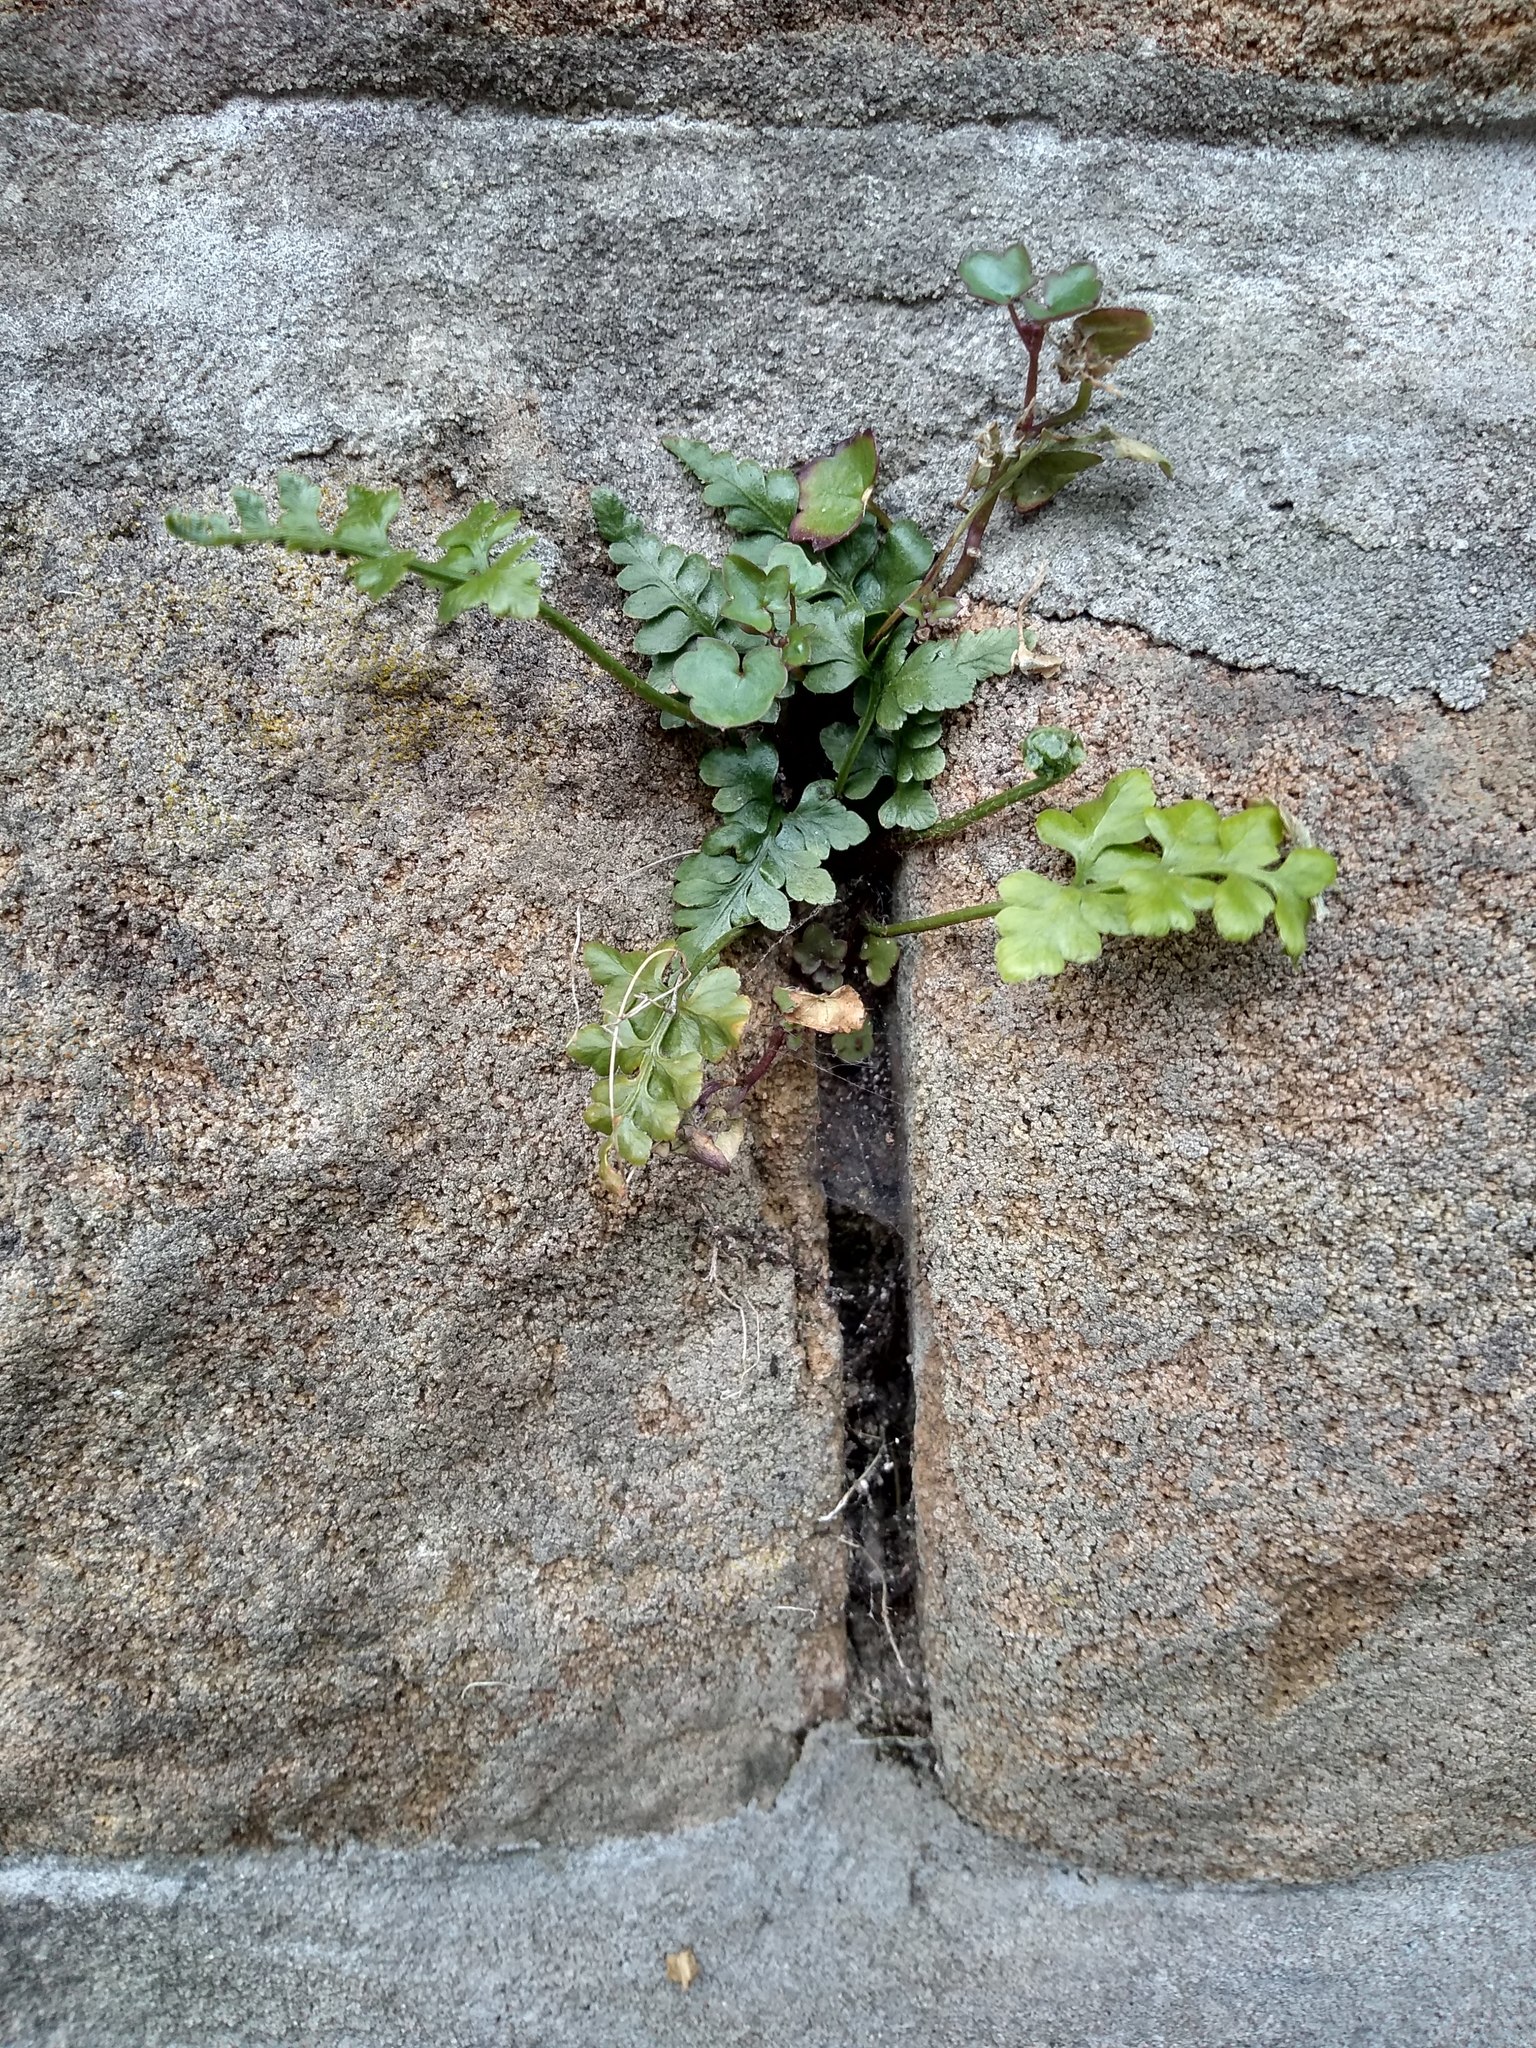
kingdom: Plantae
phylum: Tracheophyta
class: Polypodiopsida
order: Polypodiales
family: Aspleniaceae
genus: Asplenium
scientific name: Asplenium ruta-muraria
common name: Wall-rue
